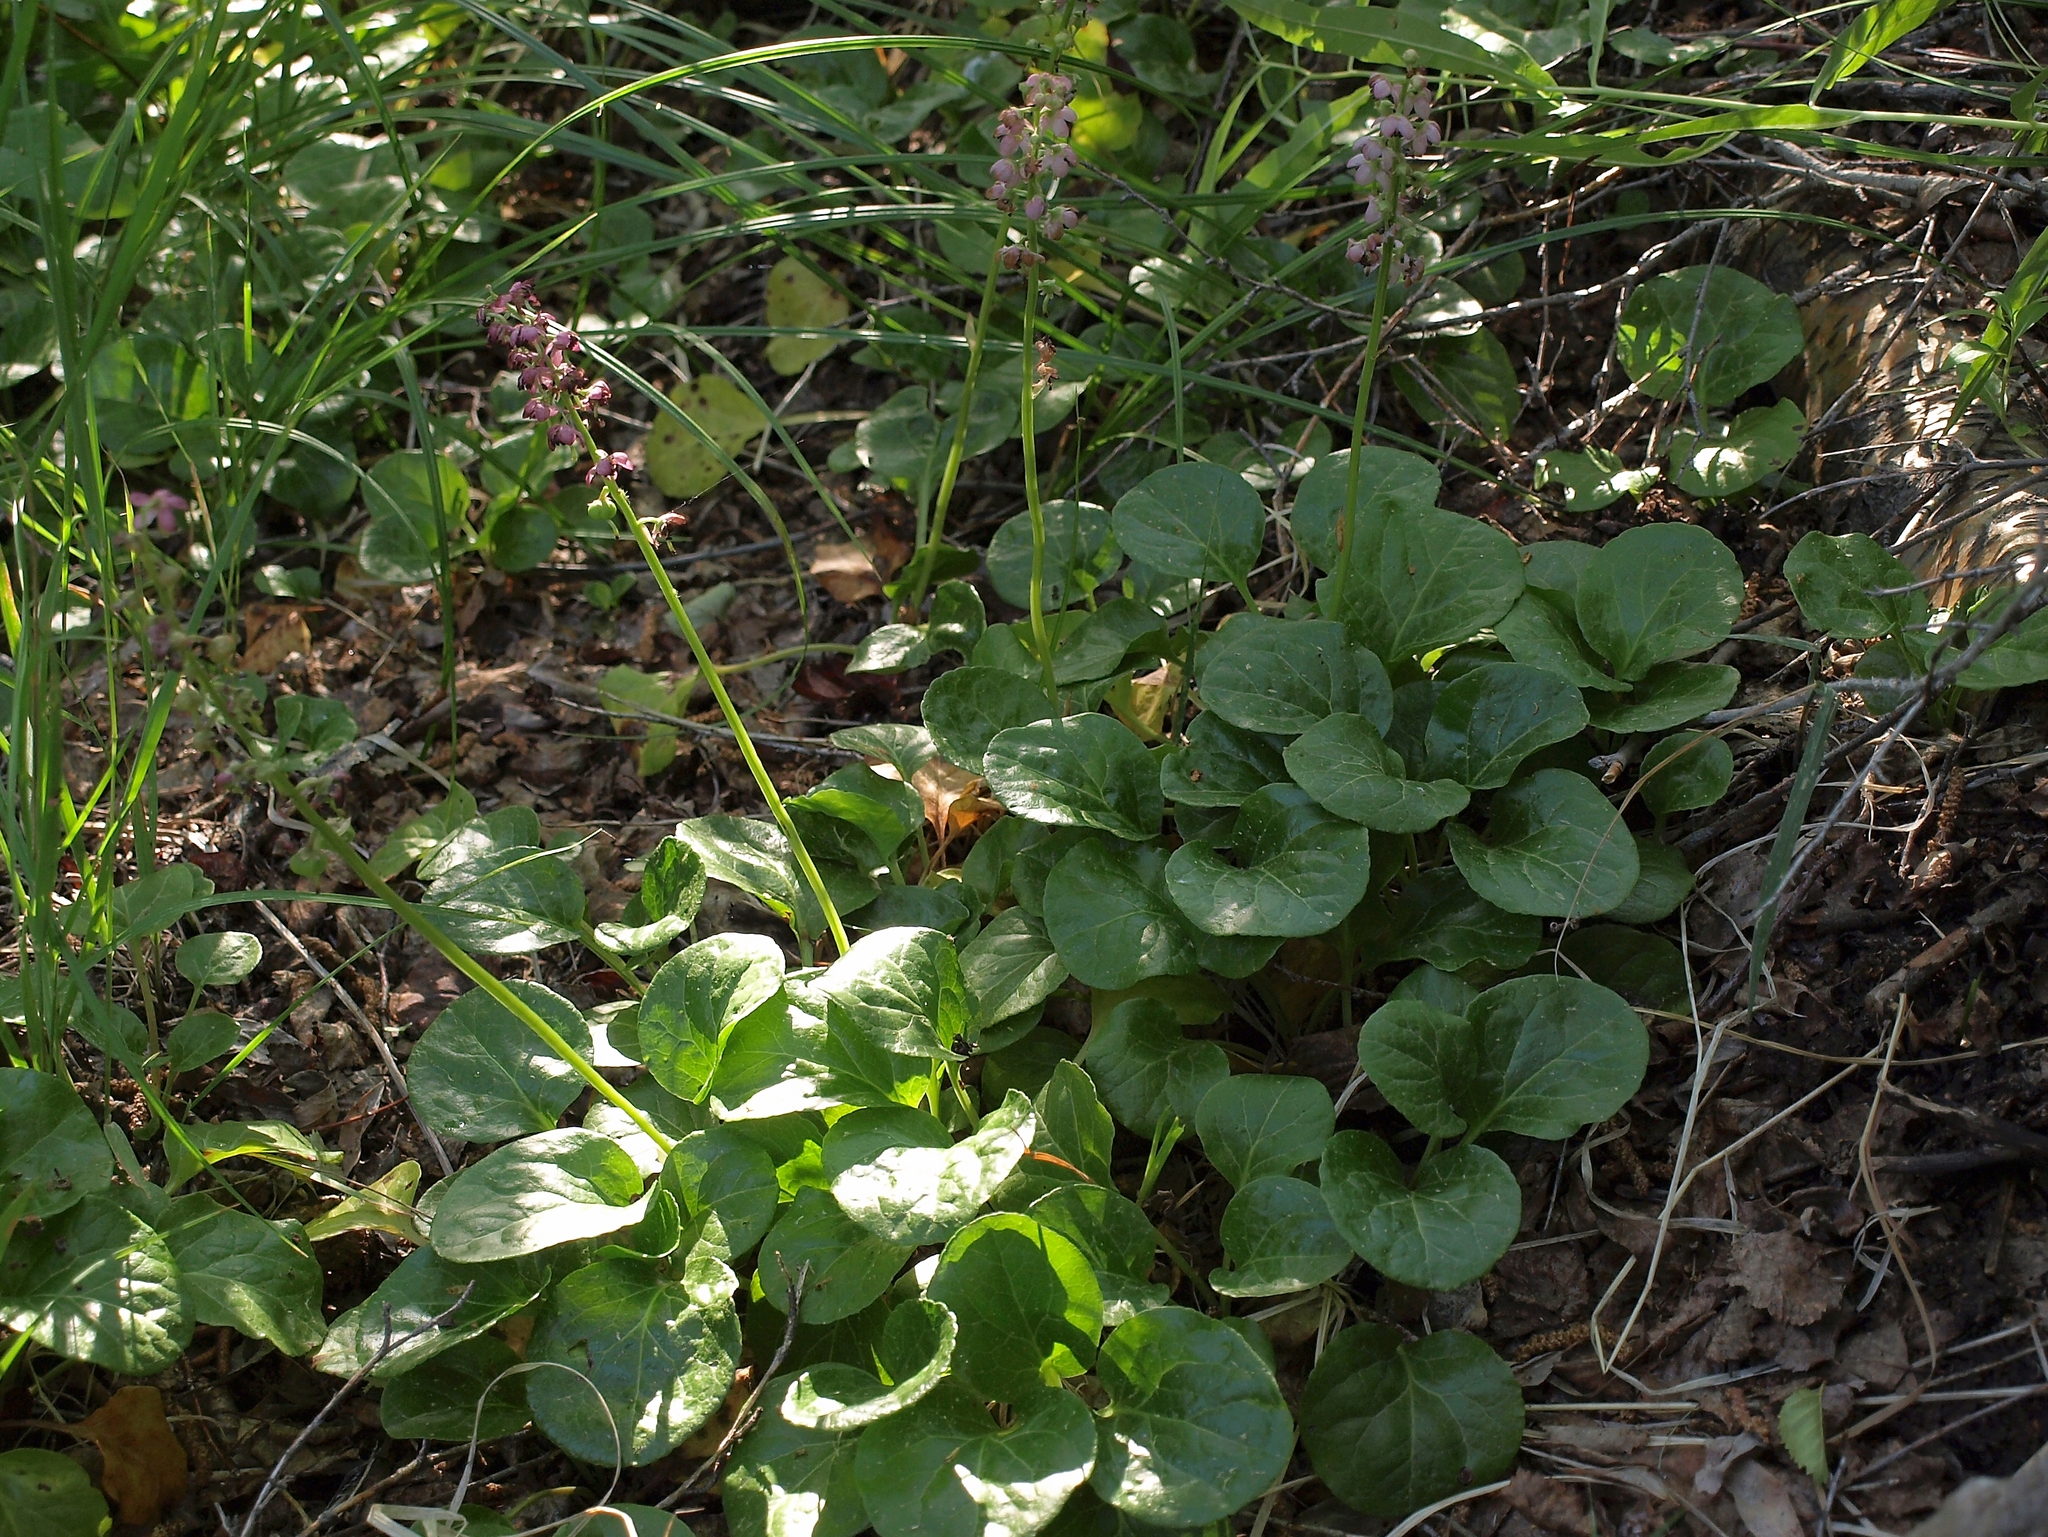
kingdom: Plantae
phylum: Tracheophyta
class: Magnoliopsida
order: Ericales
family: Ericaceae
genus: Pyrola
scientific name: Pyrola asarifolia
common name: Bog wintergreen
